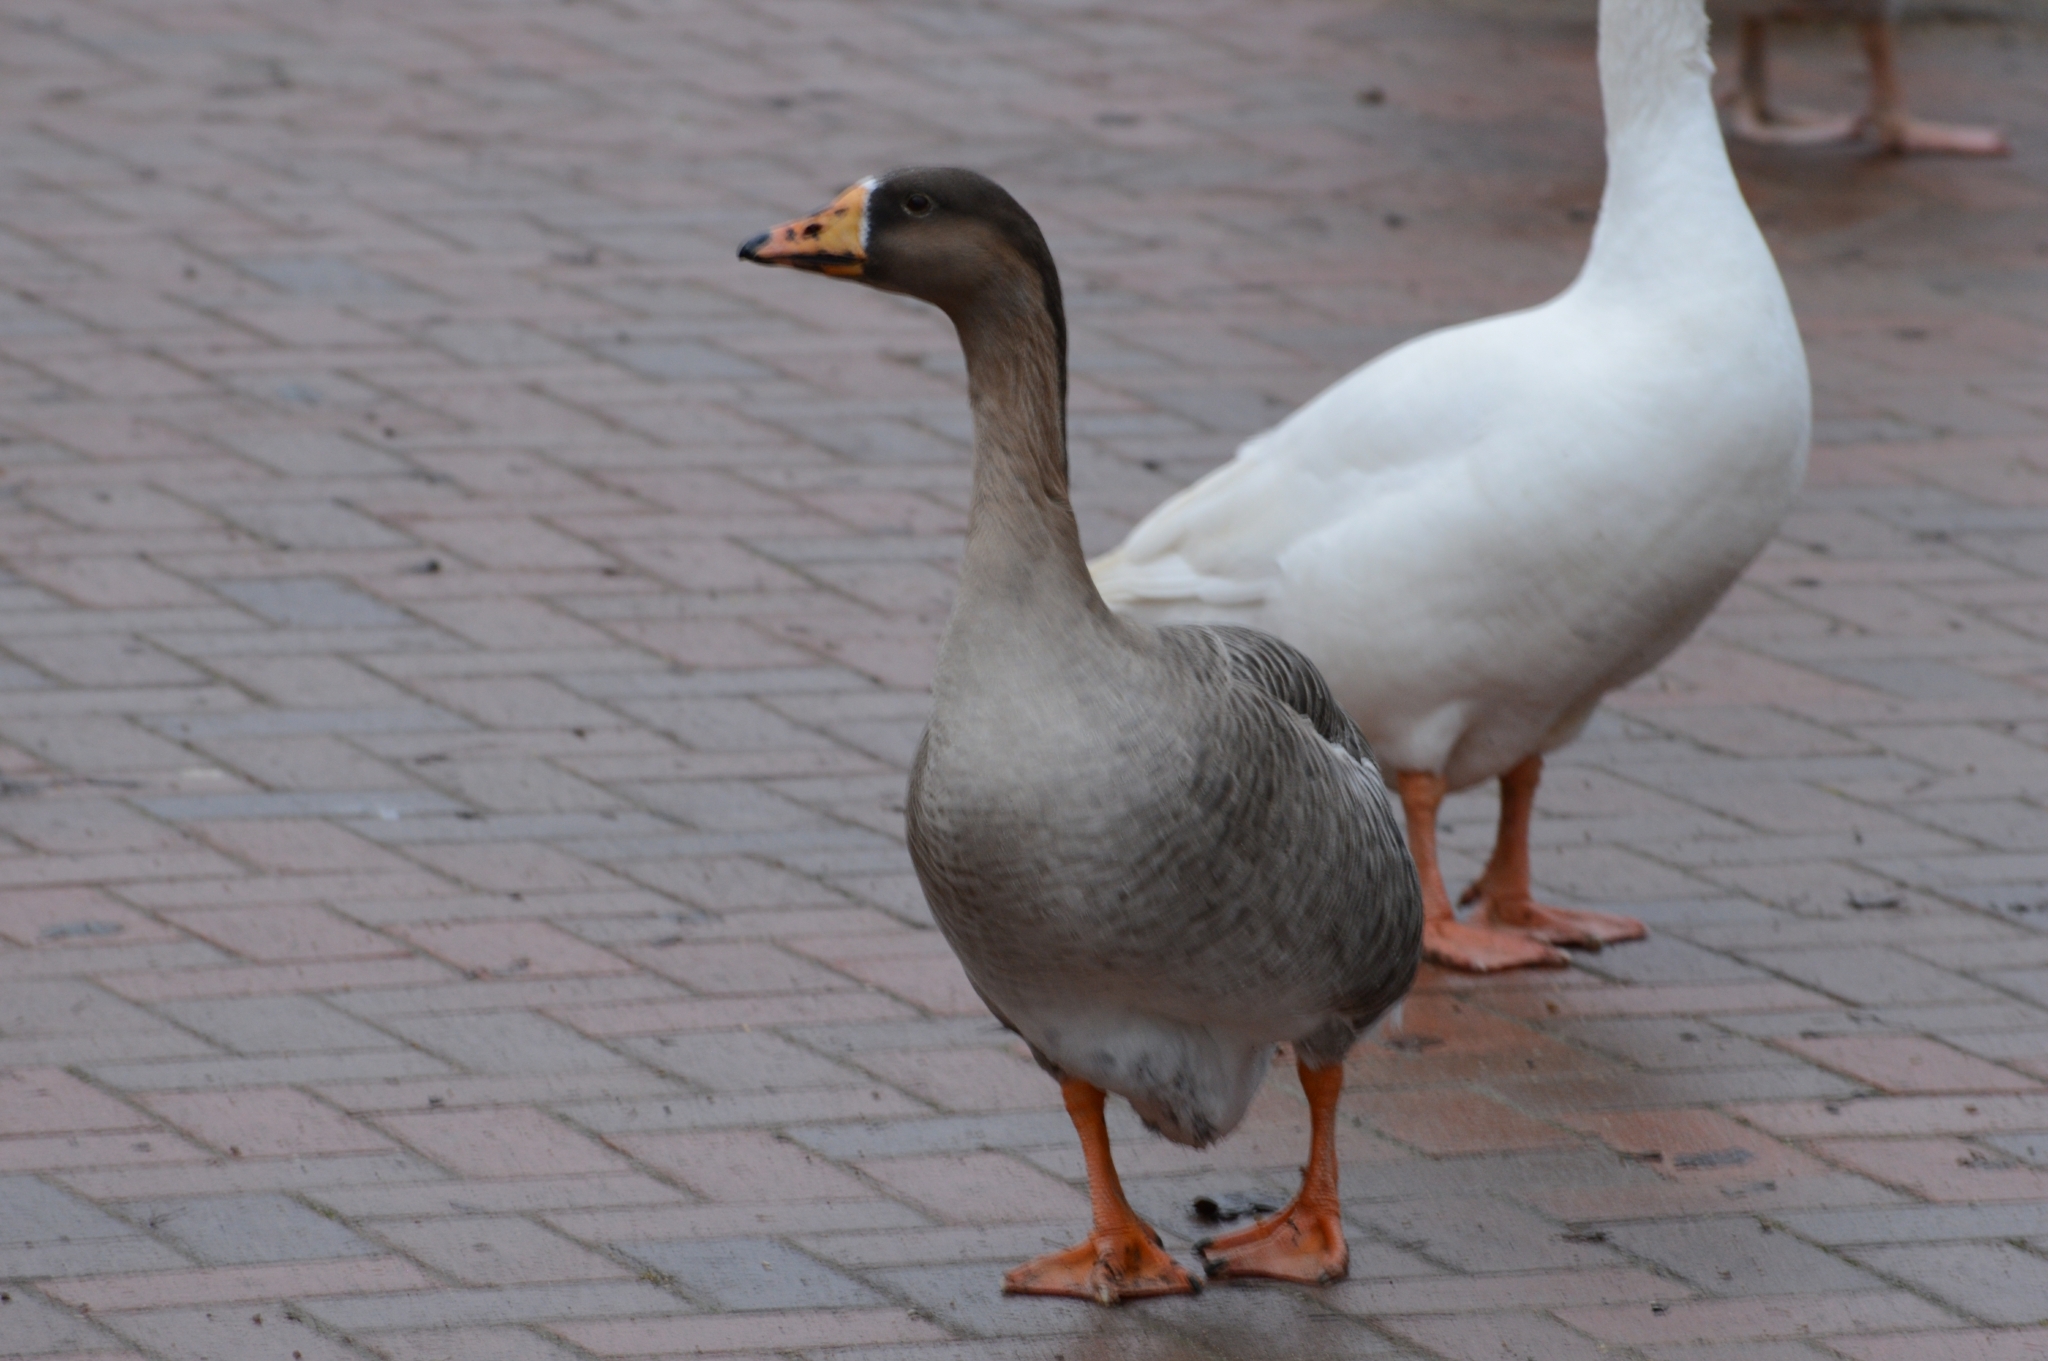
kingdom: Animalia
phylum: Chordata
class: Aves
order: Anseriformes
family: Anatidae
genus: Anser
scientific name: Anser
